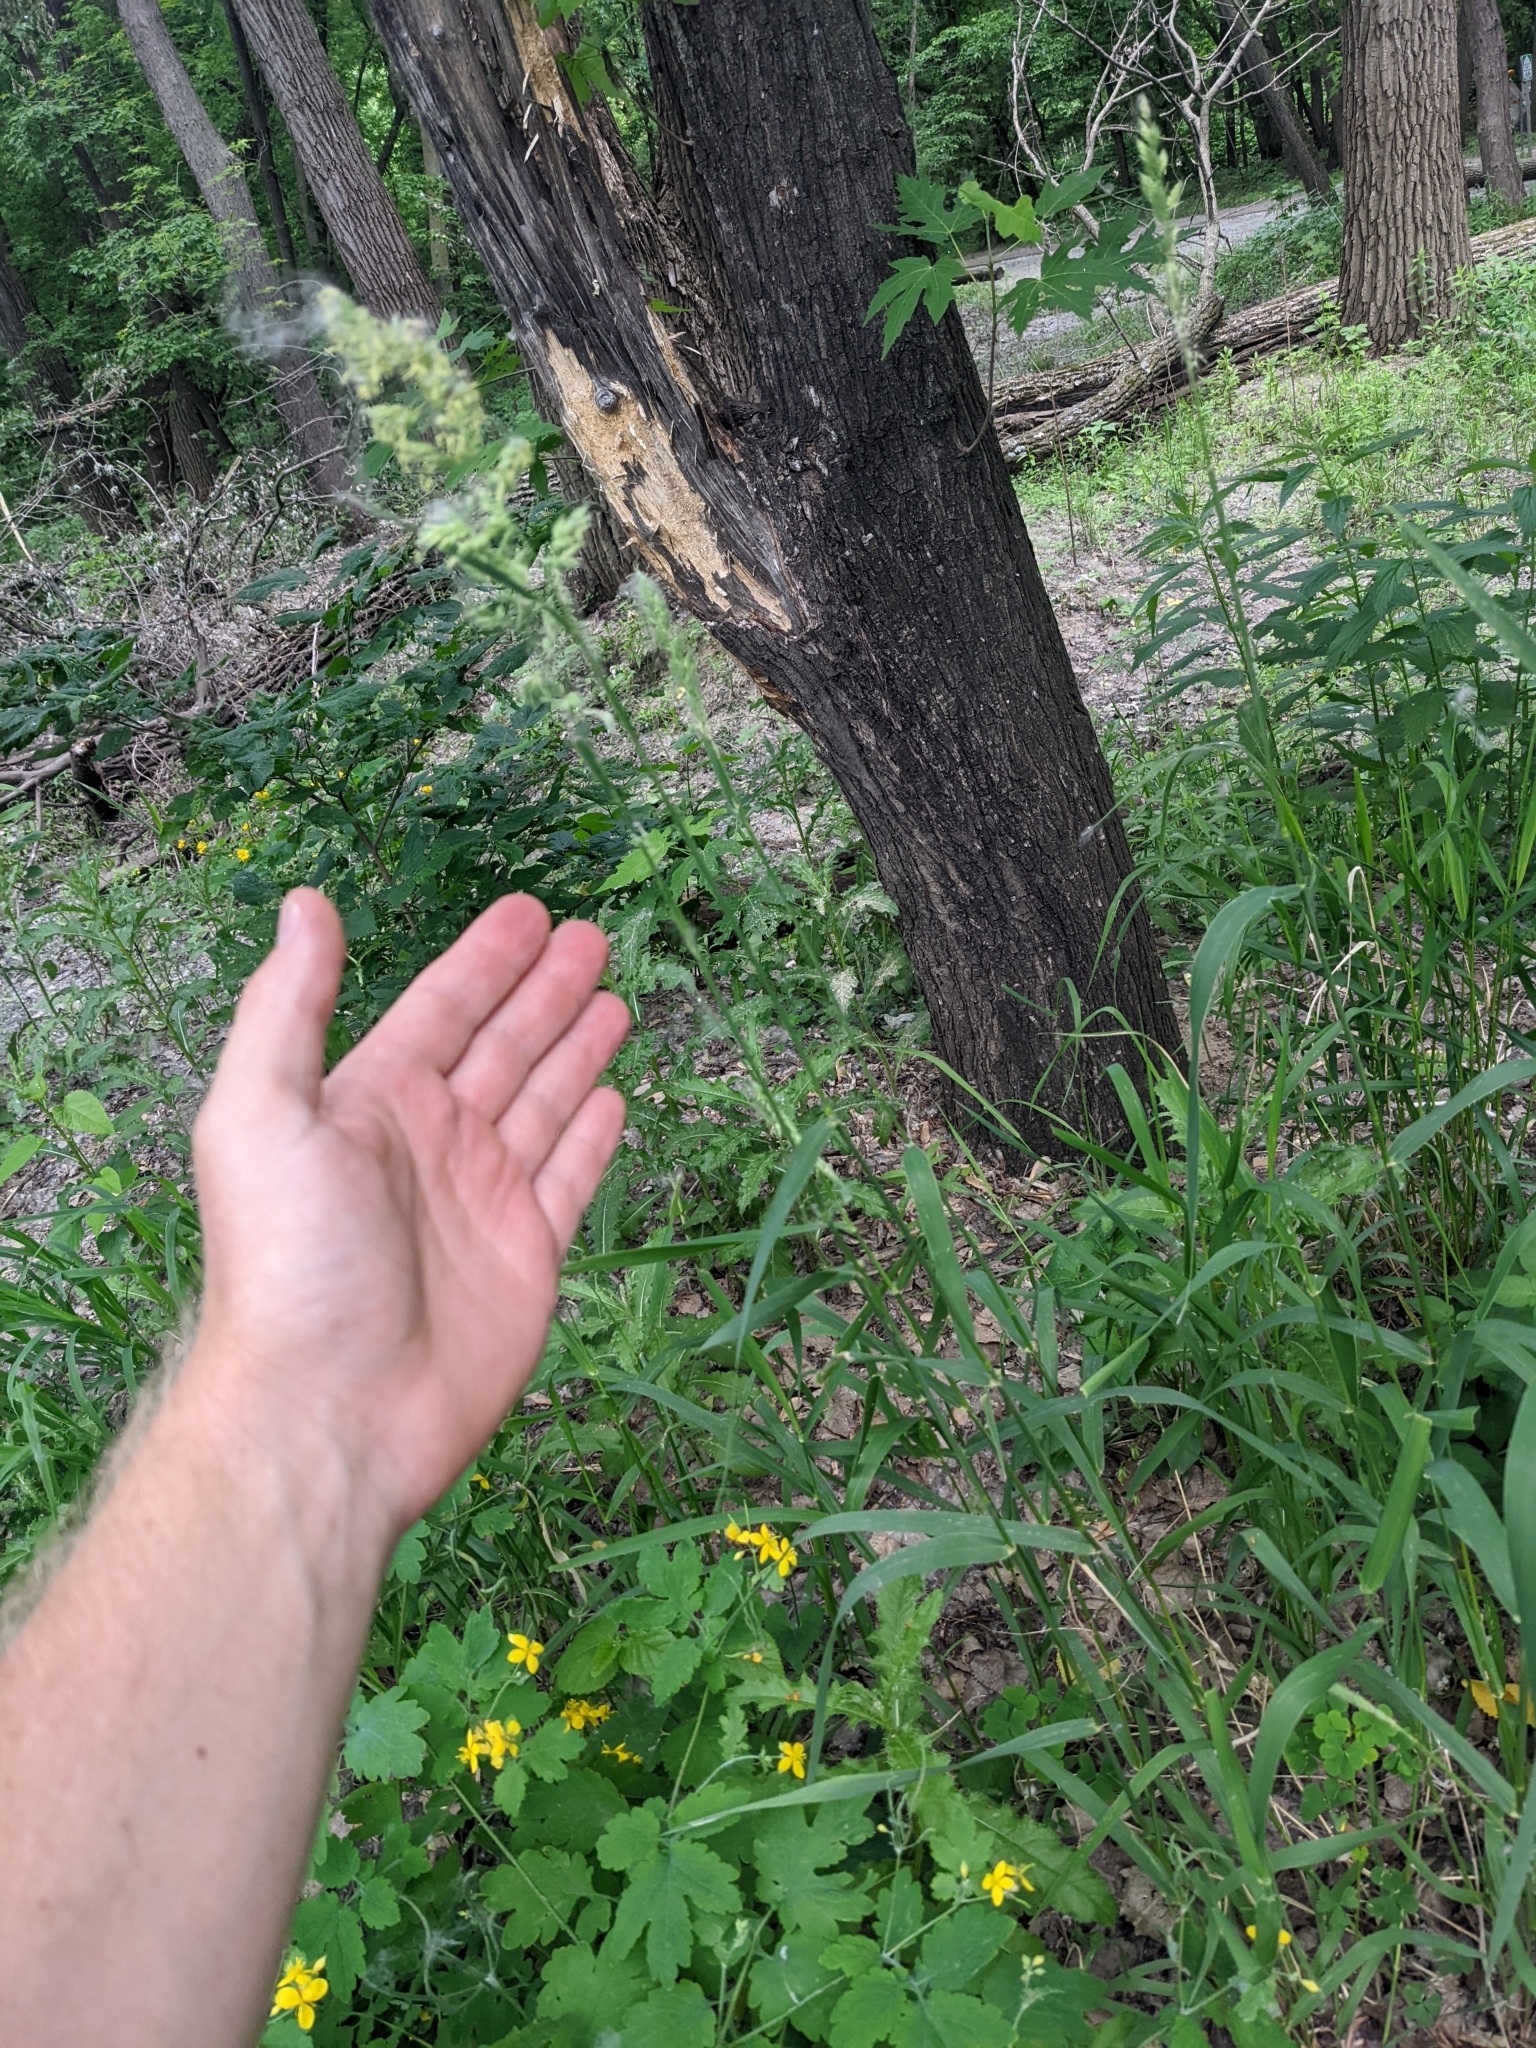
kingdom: Plantae
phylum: Tracheophyta
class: Liliopsida
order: Poales
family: Poaceae
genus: Phalaris
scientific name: Phalaris arundinacea
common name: Reed canary-grass
